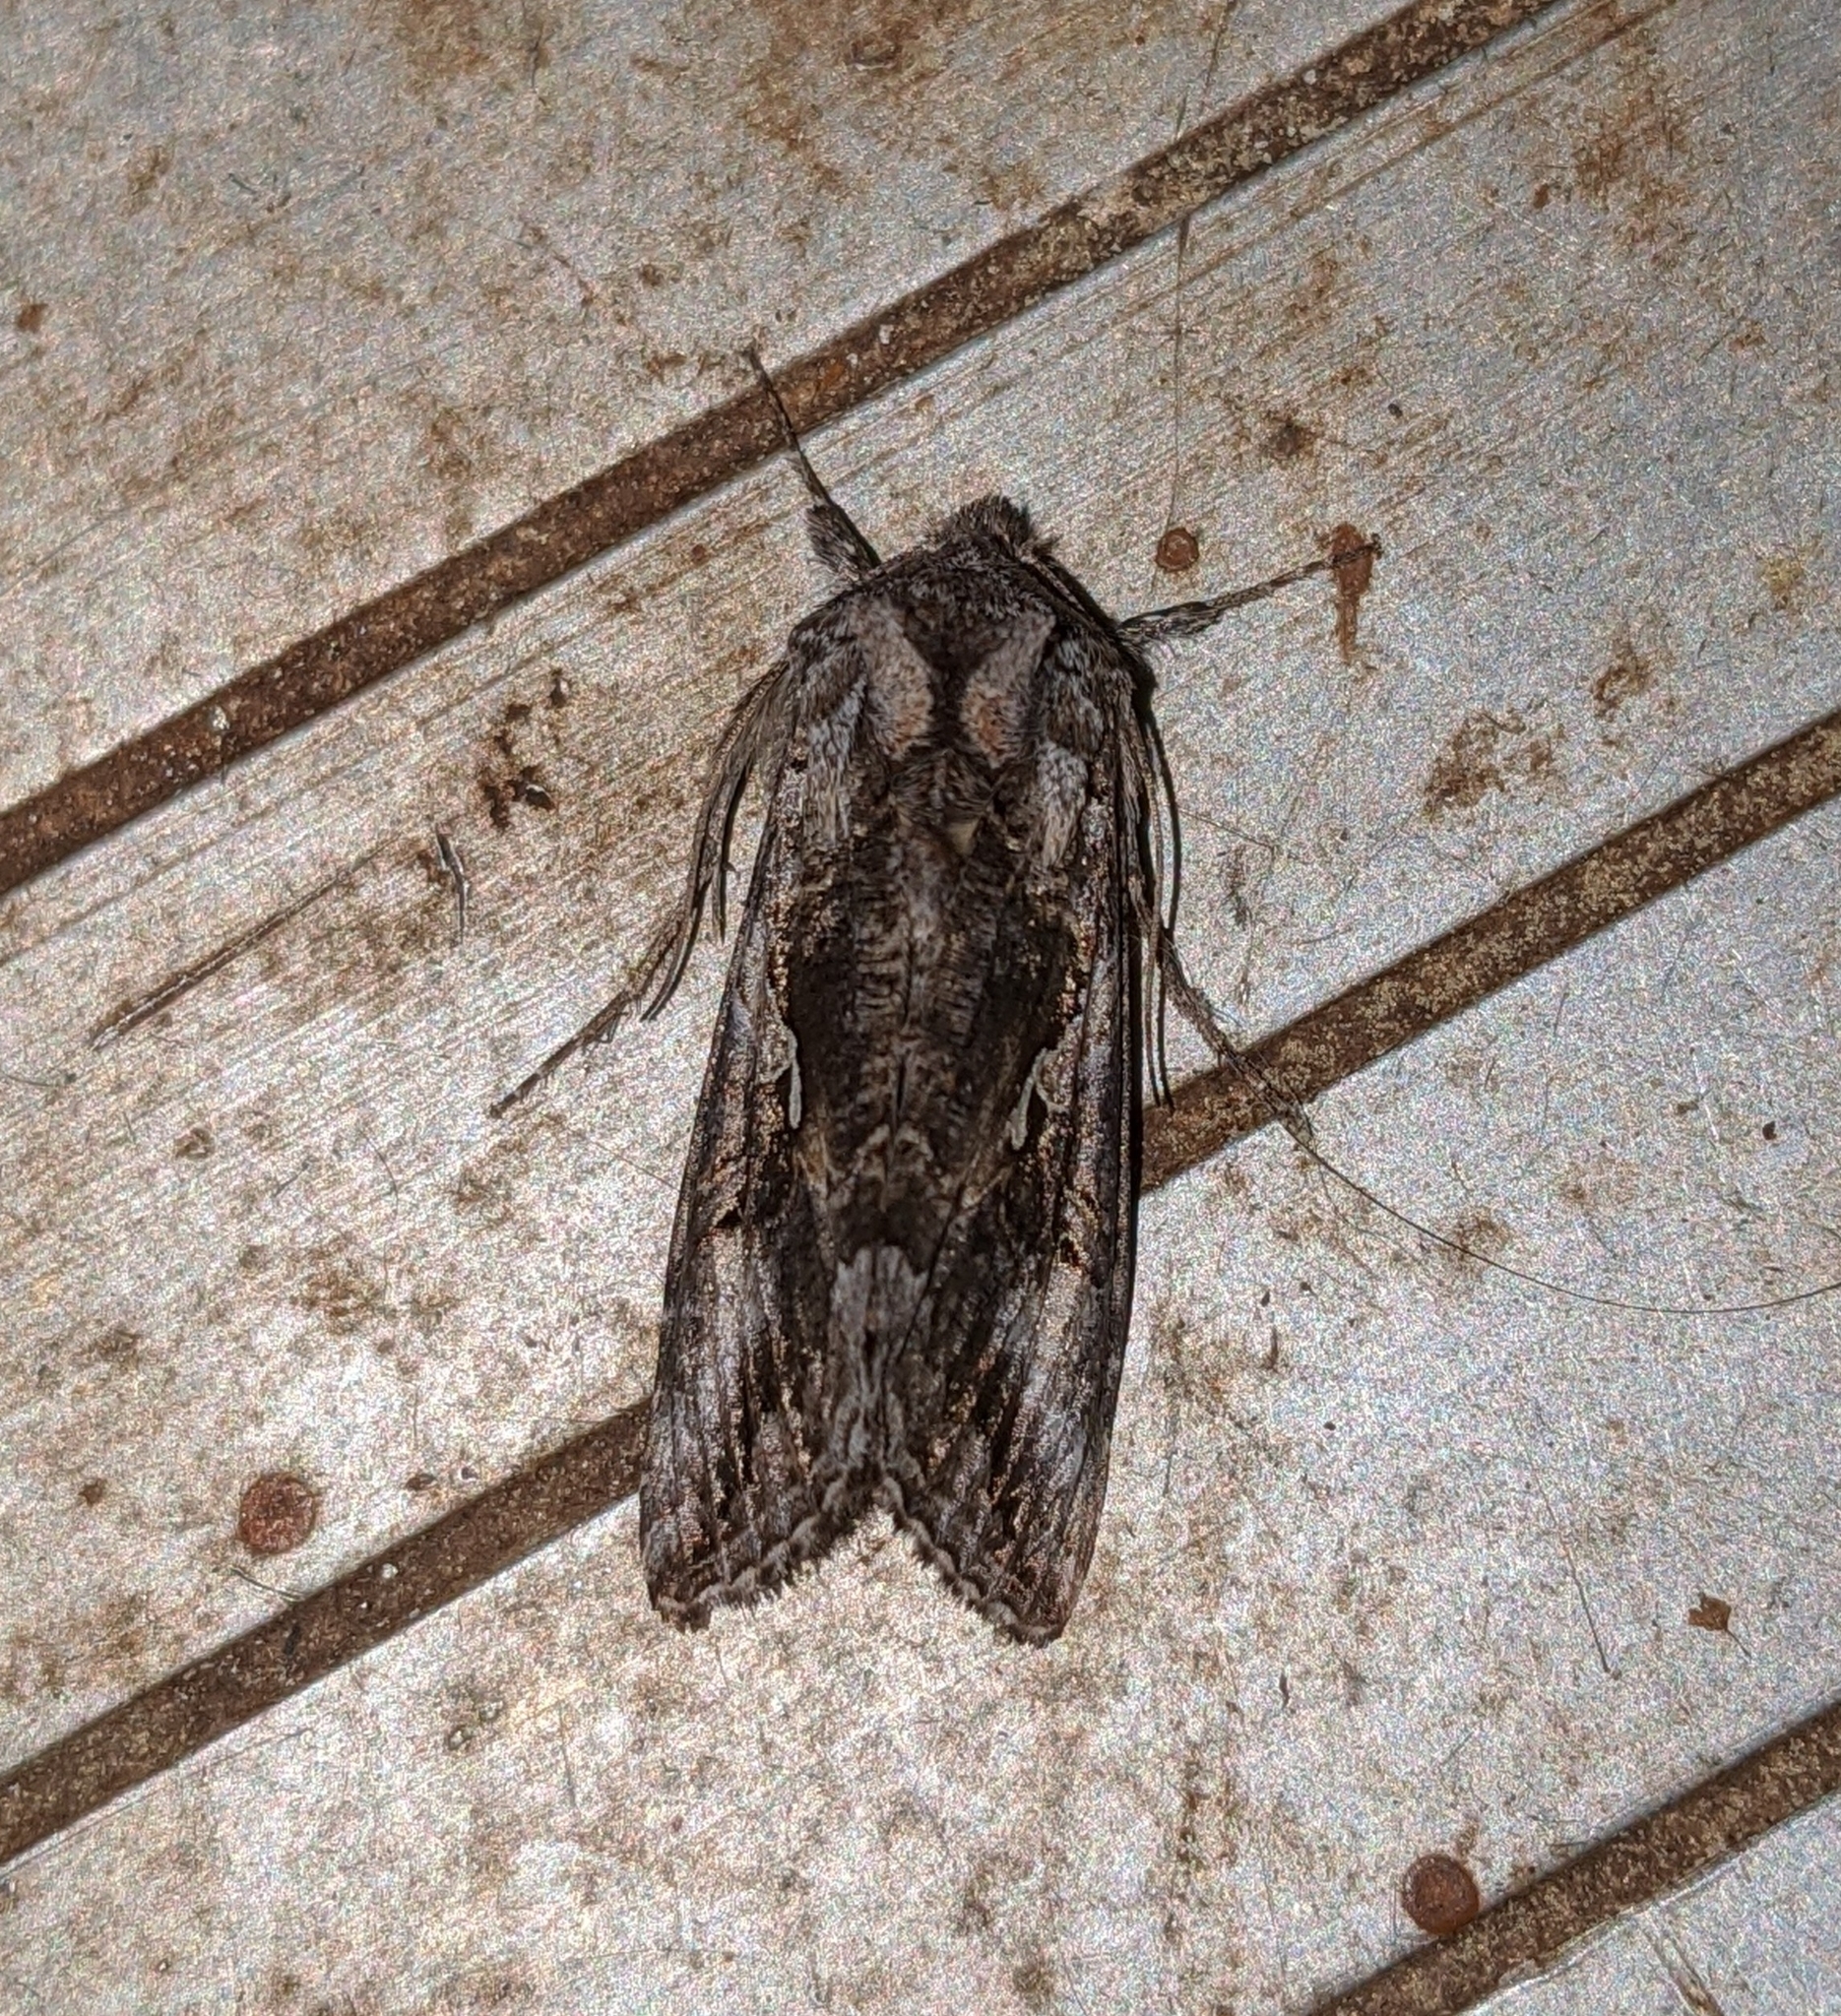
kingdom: Animalia
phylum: Arthropoda
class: Insecta
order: Lepidoptera
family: Noctuidae
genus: Autographa
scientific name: Autographa californica
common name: Alfalfa looper
